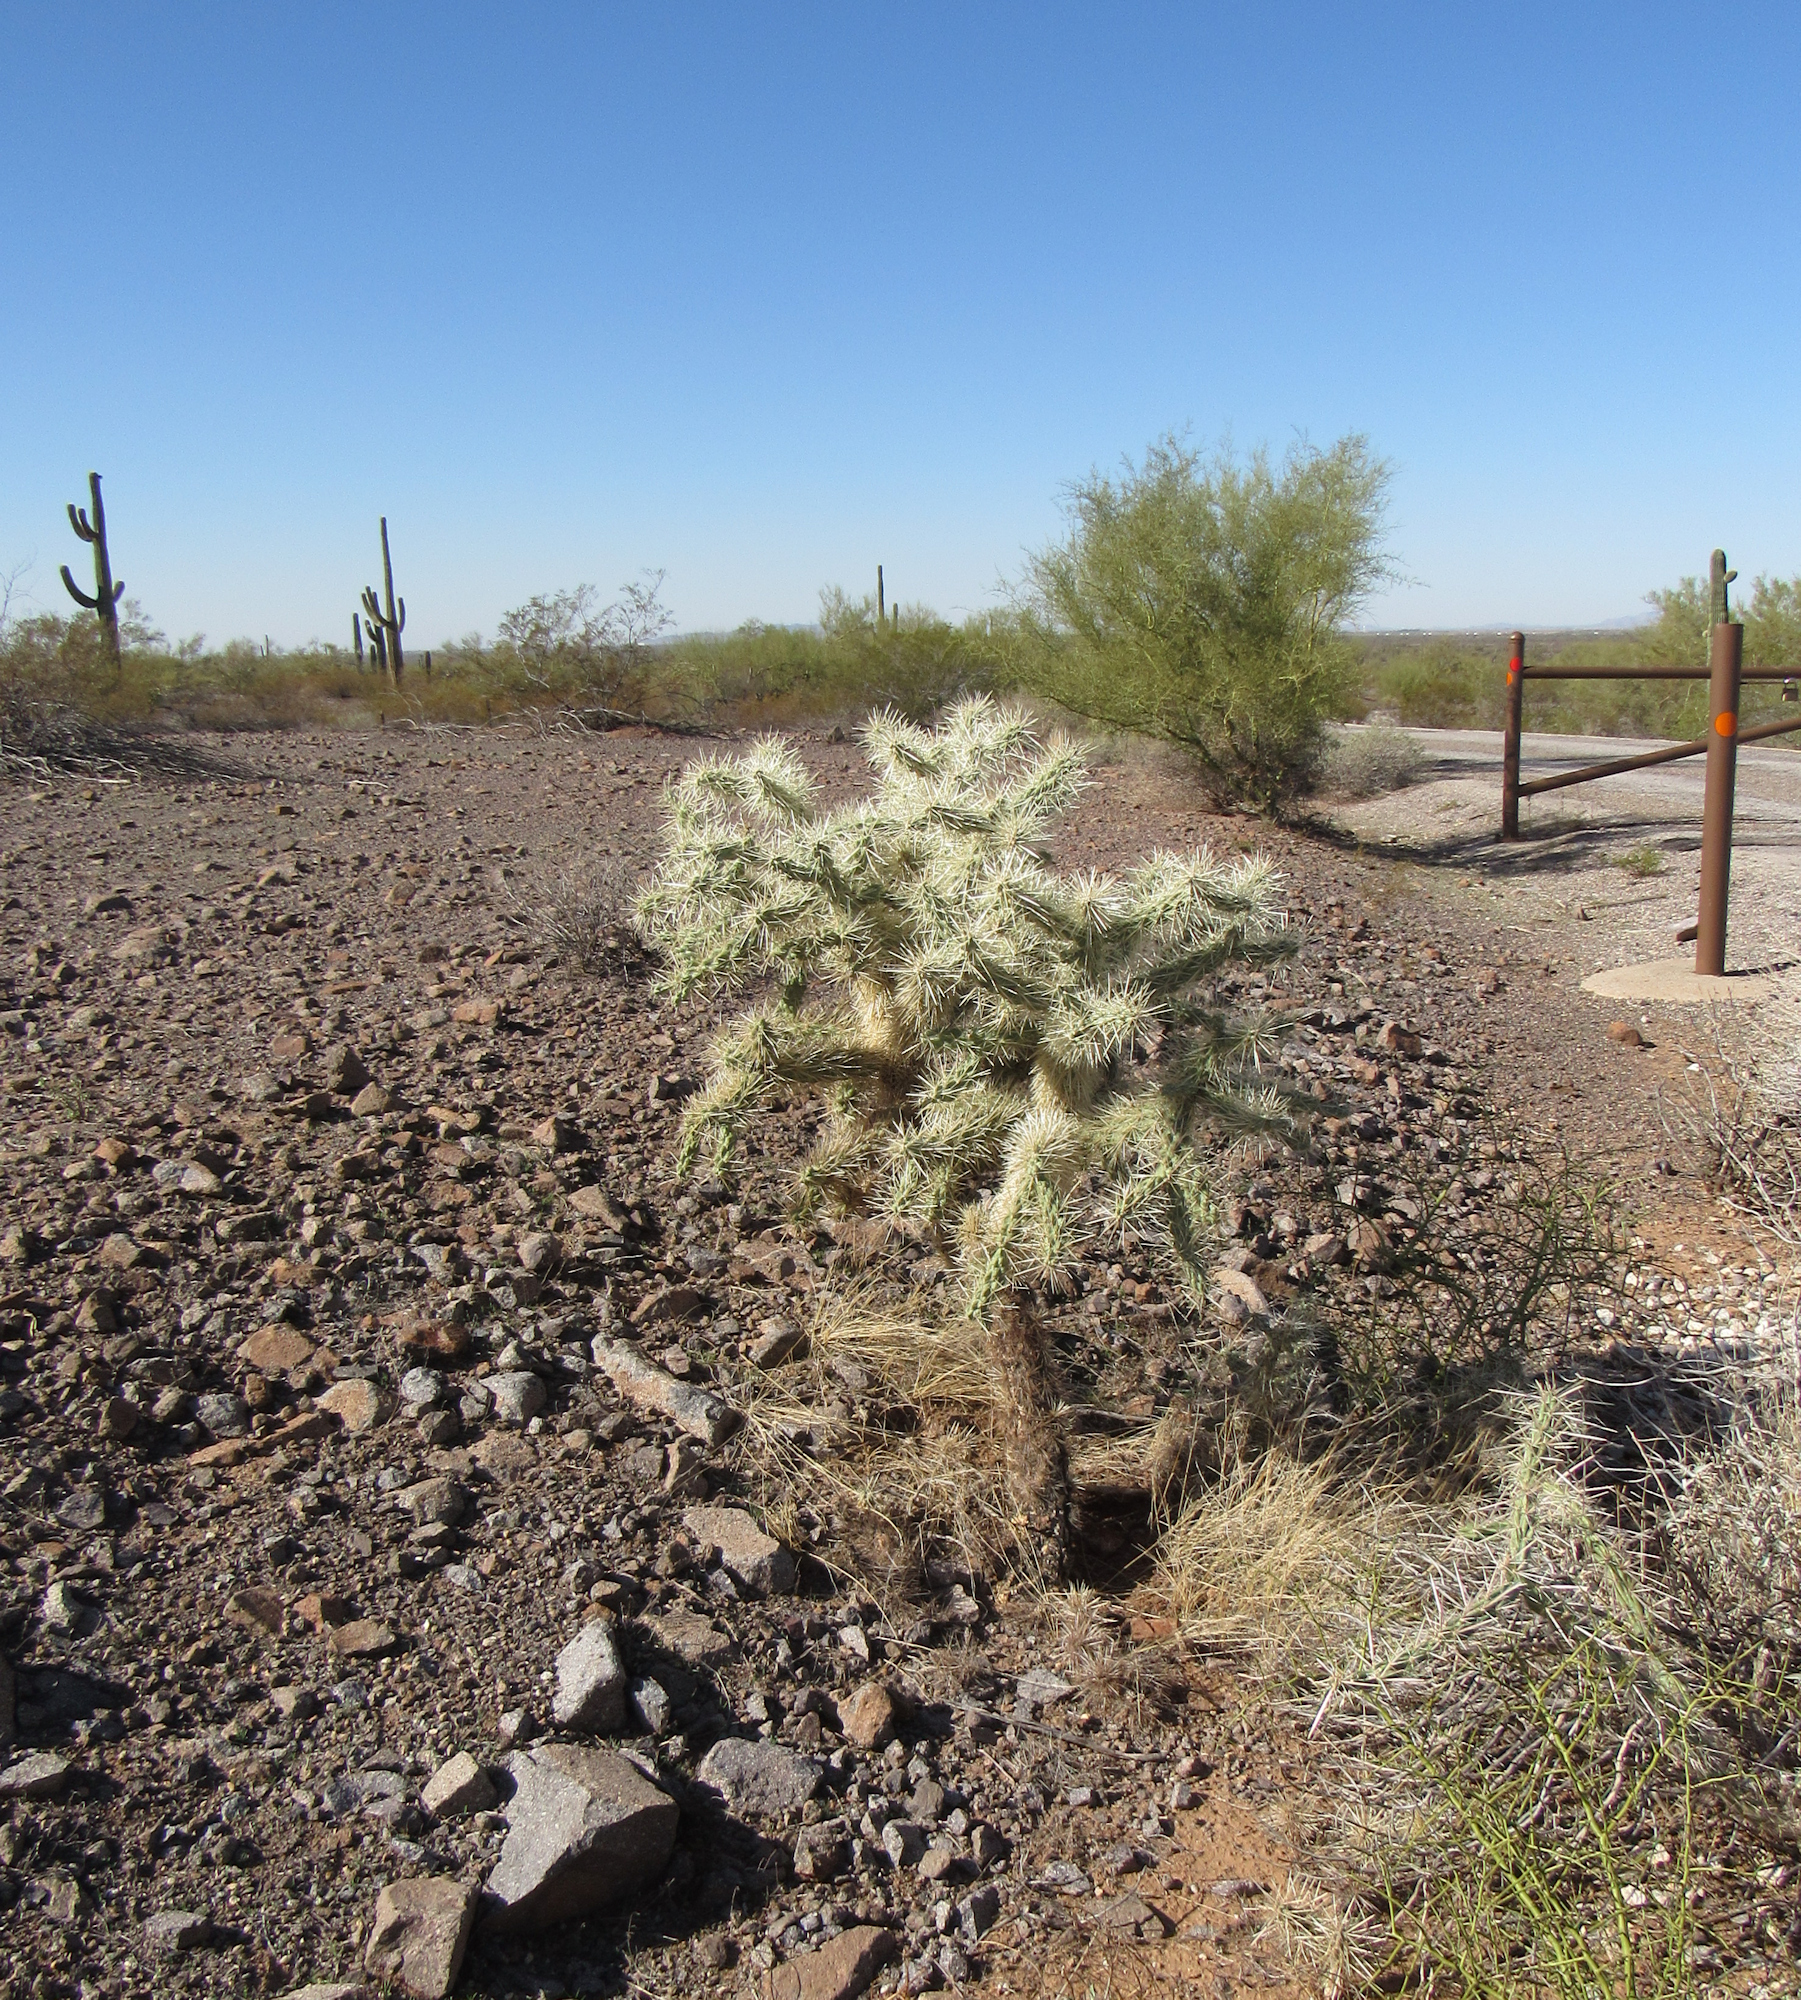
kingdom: Plantae
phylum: Tracheophyta
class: Magnoliopsida
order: Caryophyllales
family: Cactaceae
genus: Cylindropuntia
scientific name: Cylindropuntia fulgida
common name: Jumping cholla
